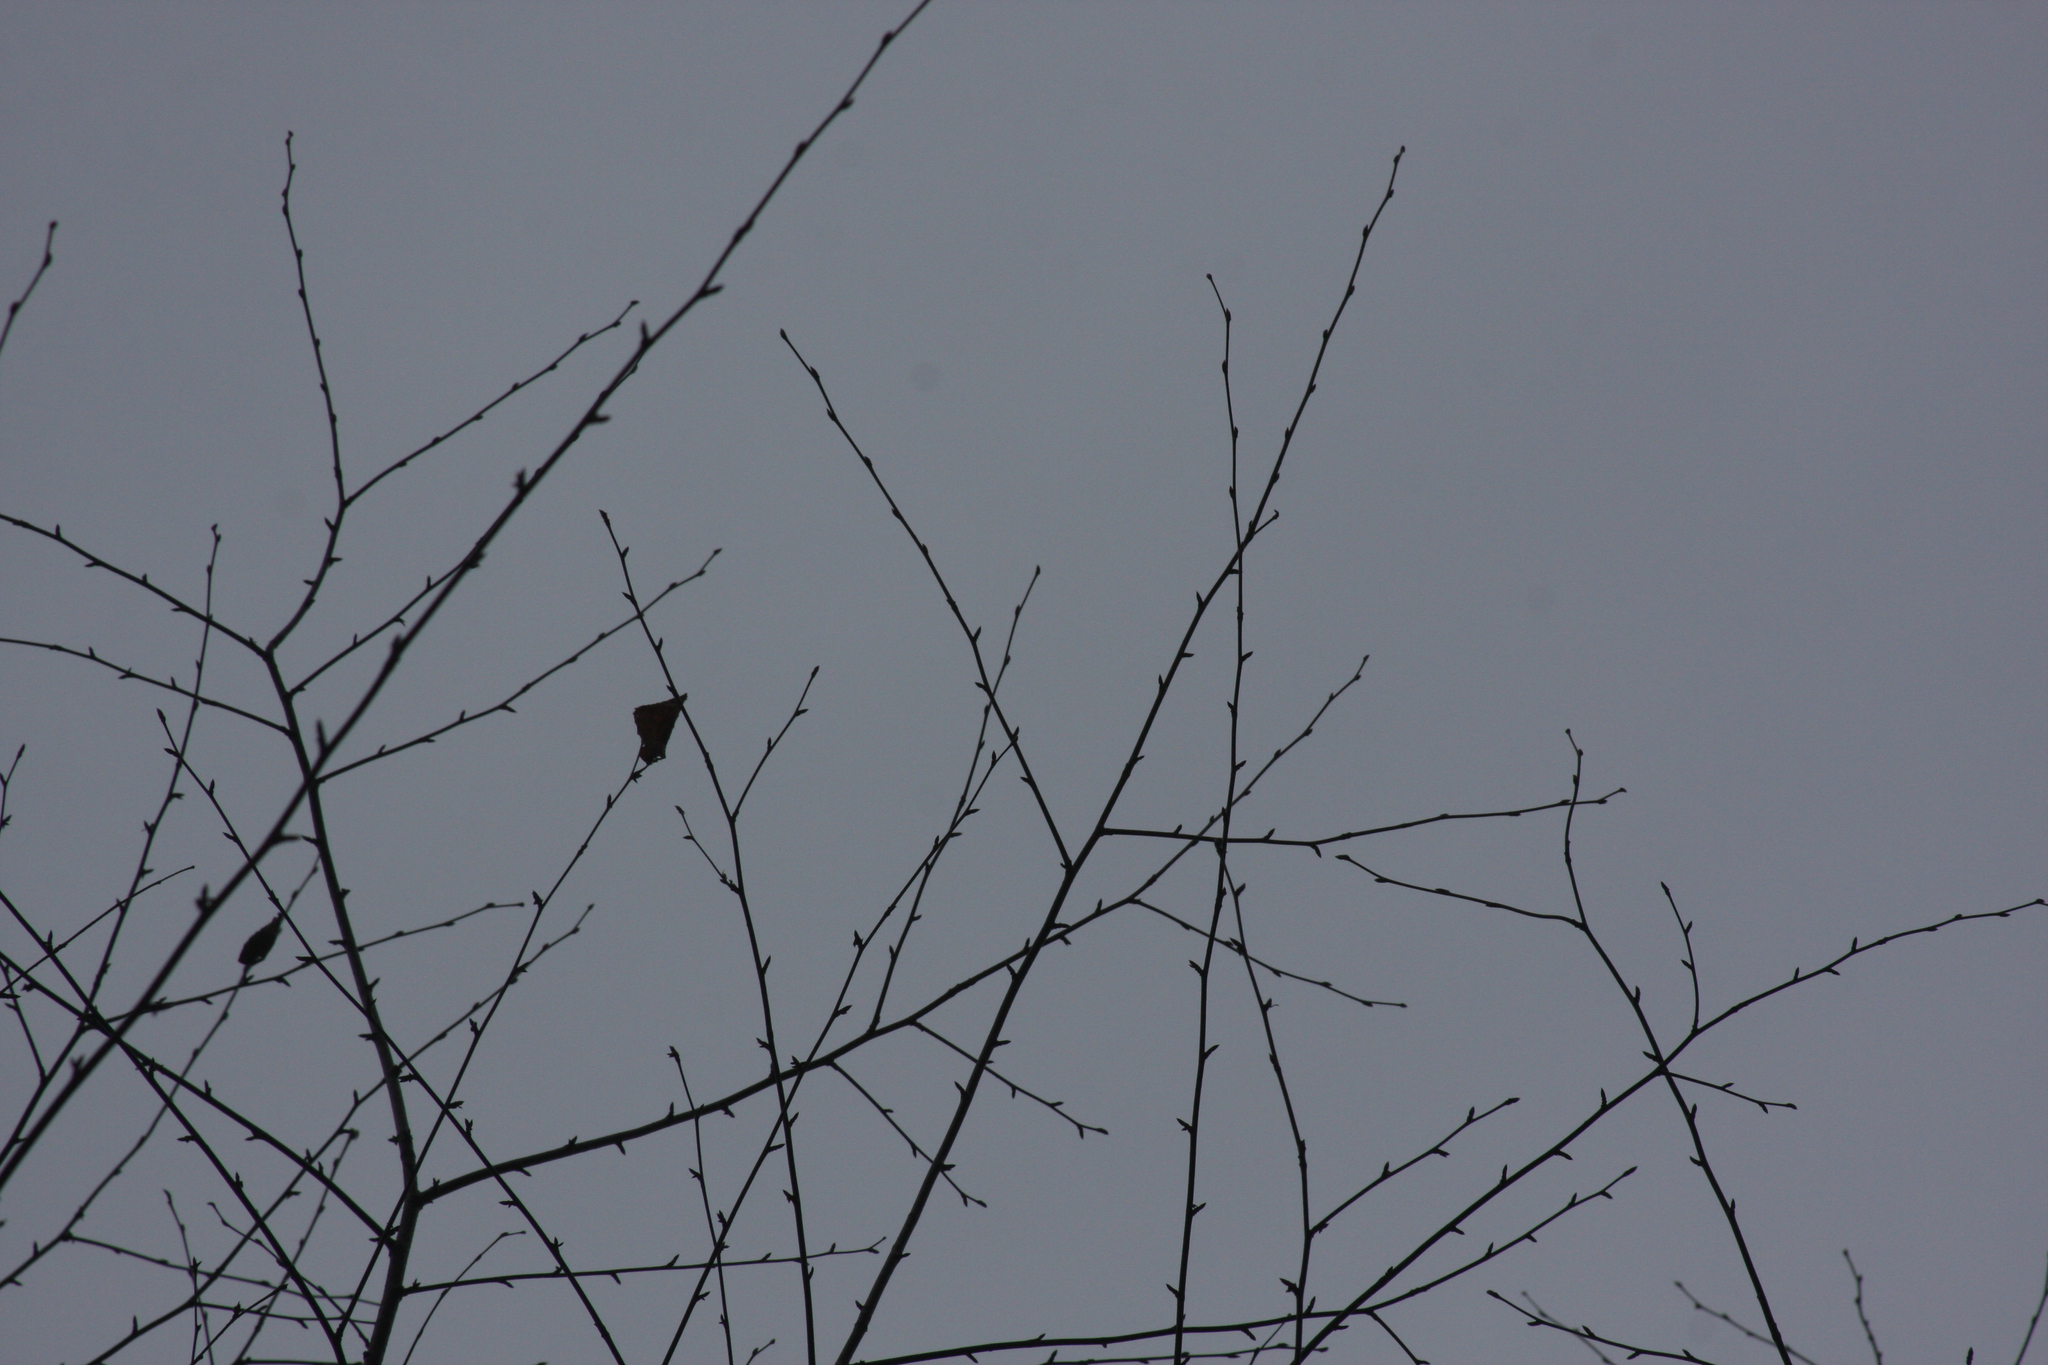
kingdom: Plantae
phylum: Tracheophyta
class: Magnoliopsida
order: Fagales
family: Betulaceae
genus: Betula
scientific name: Betula alleghaniensis
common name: Yellow birch
